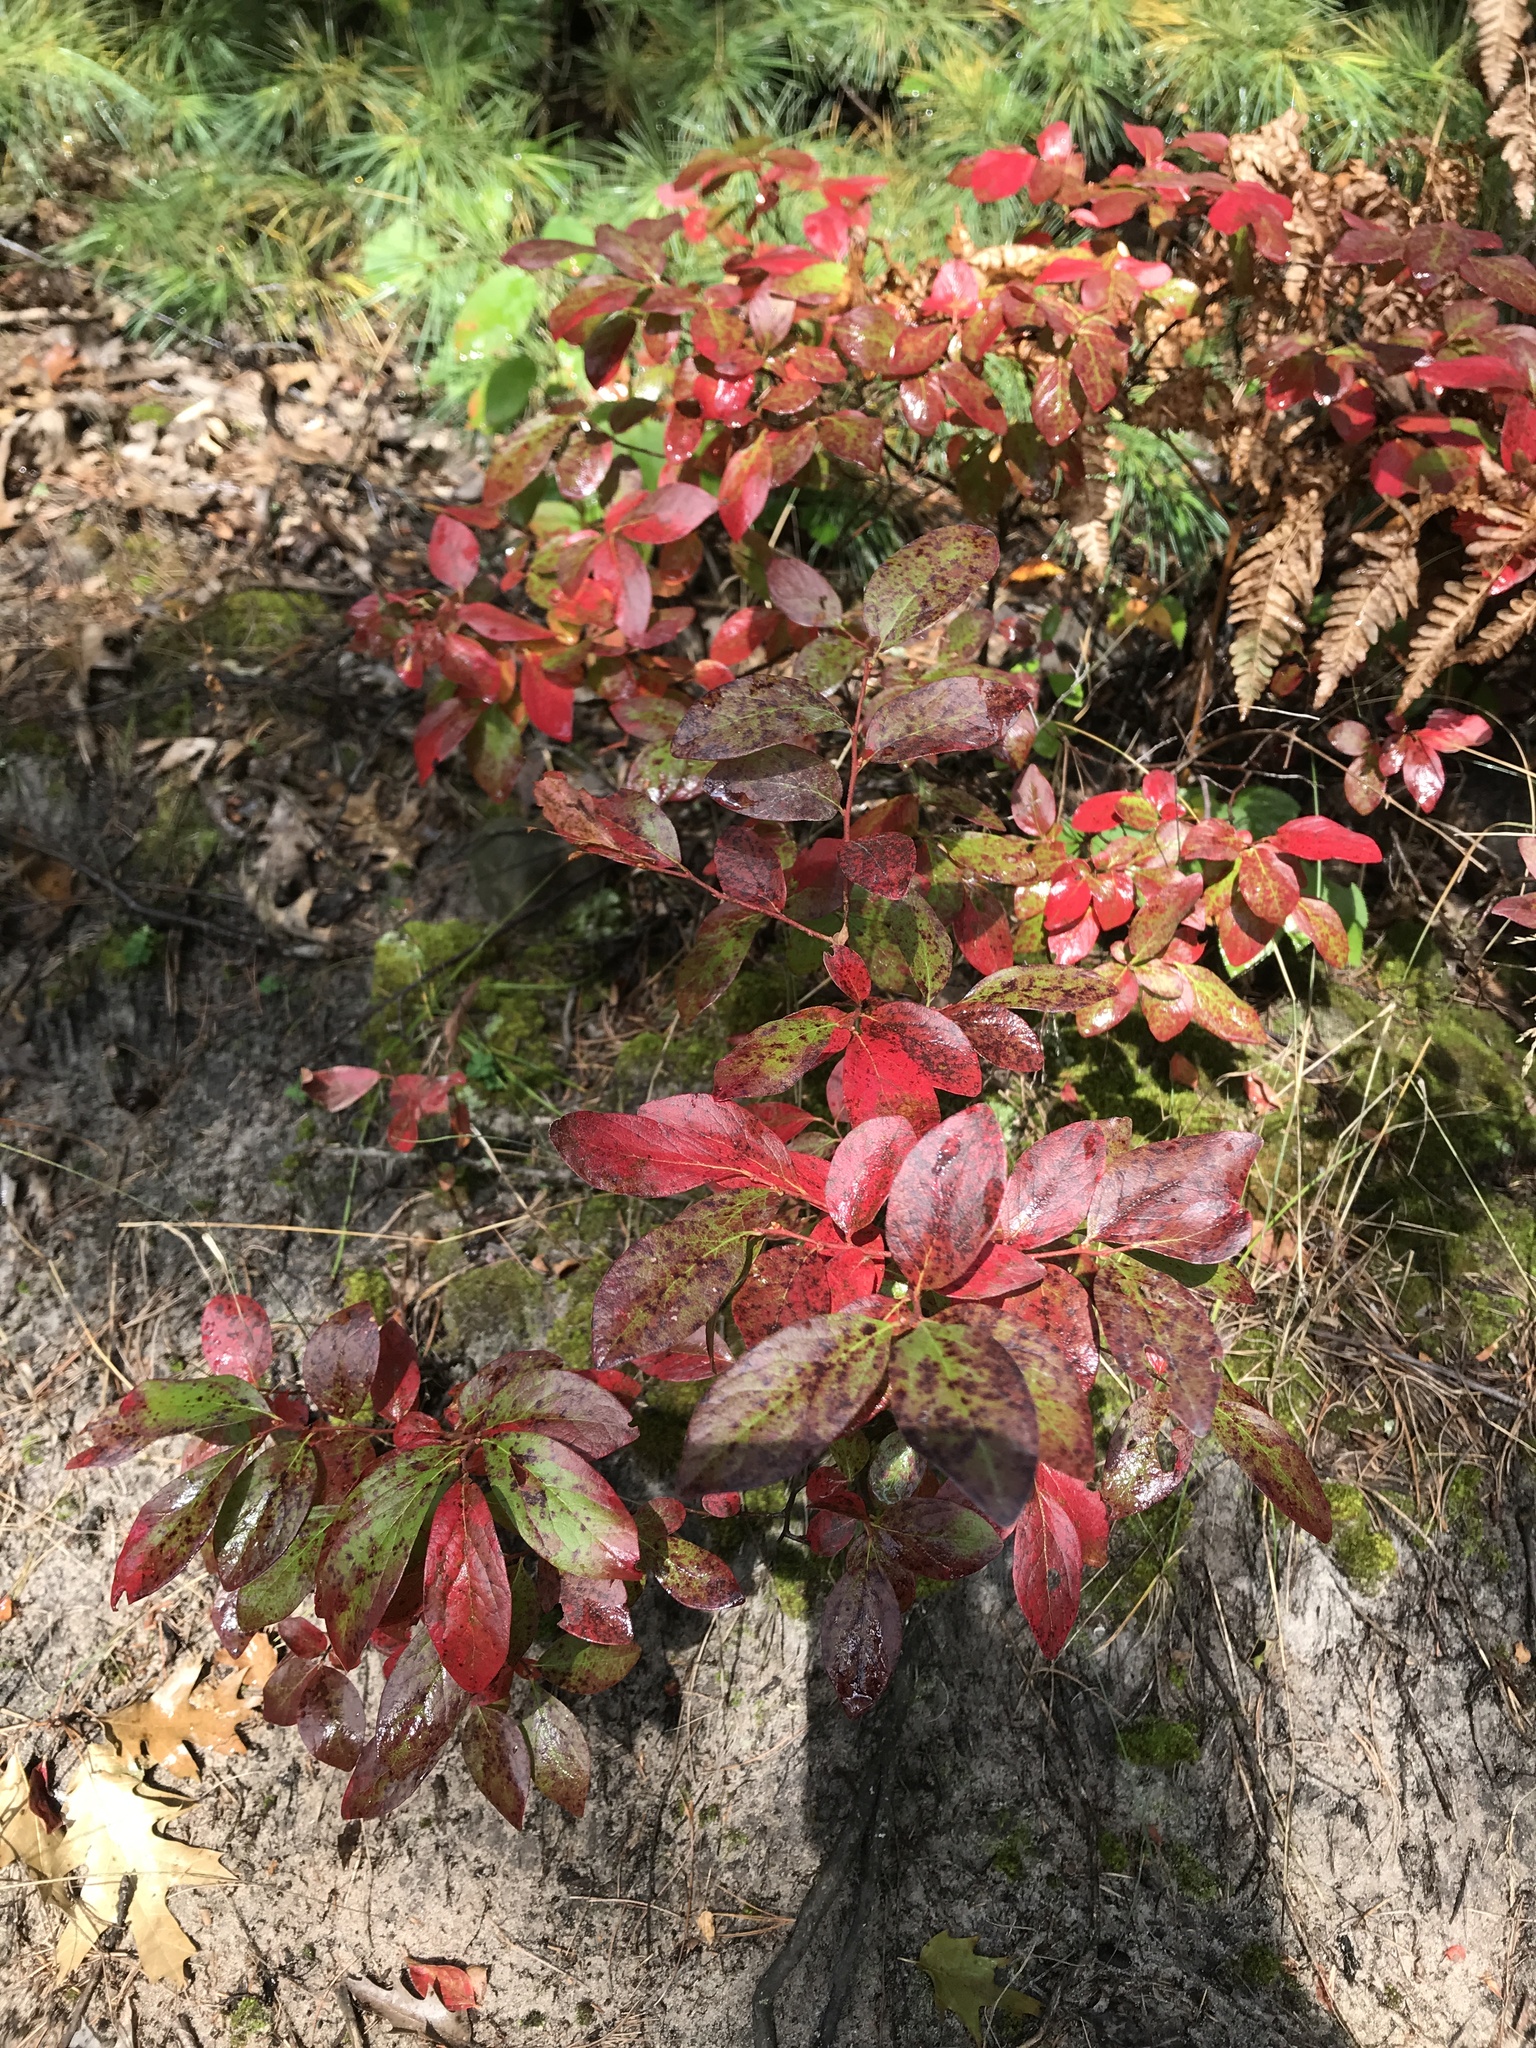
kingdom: Plantae
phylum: Tracheophyta
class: Magnoliopsida
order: Ericales
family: Ericaceae
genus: Gaylussacia
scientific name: Gaylussacia baccata
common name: Black huckleberry
